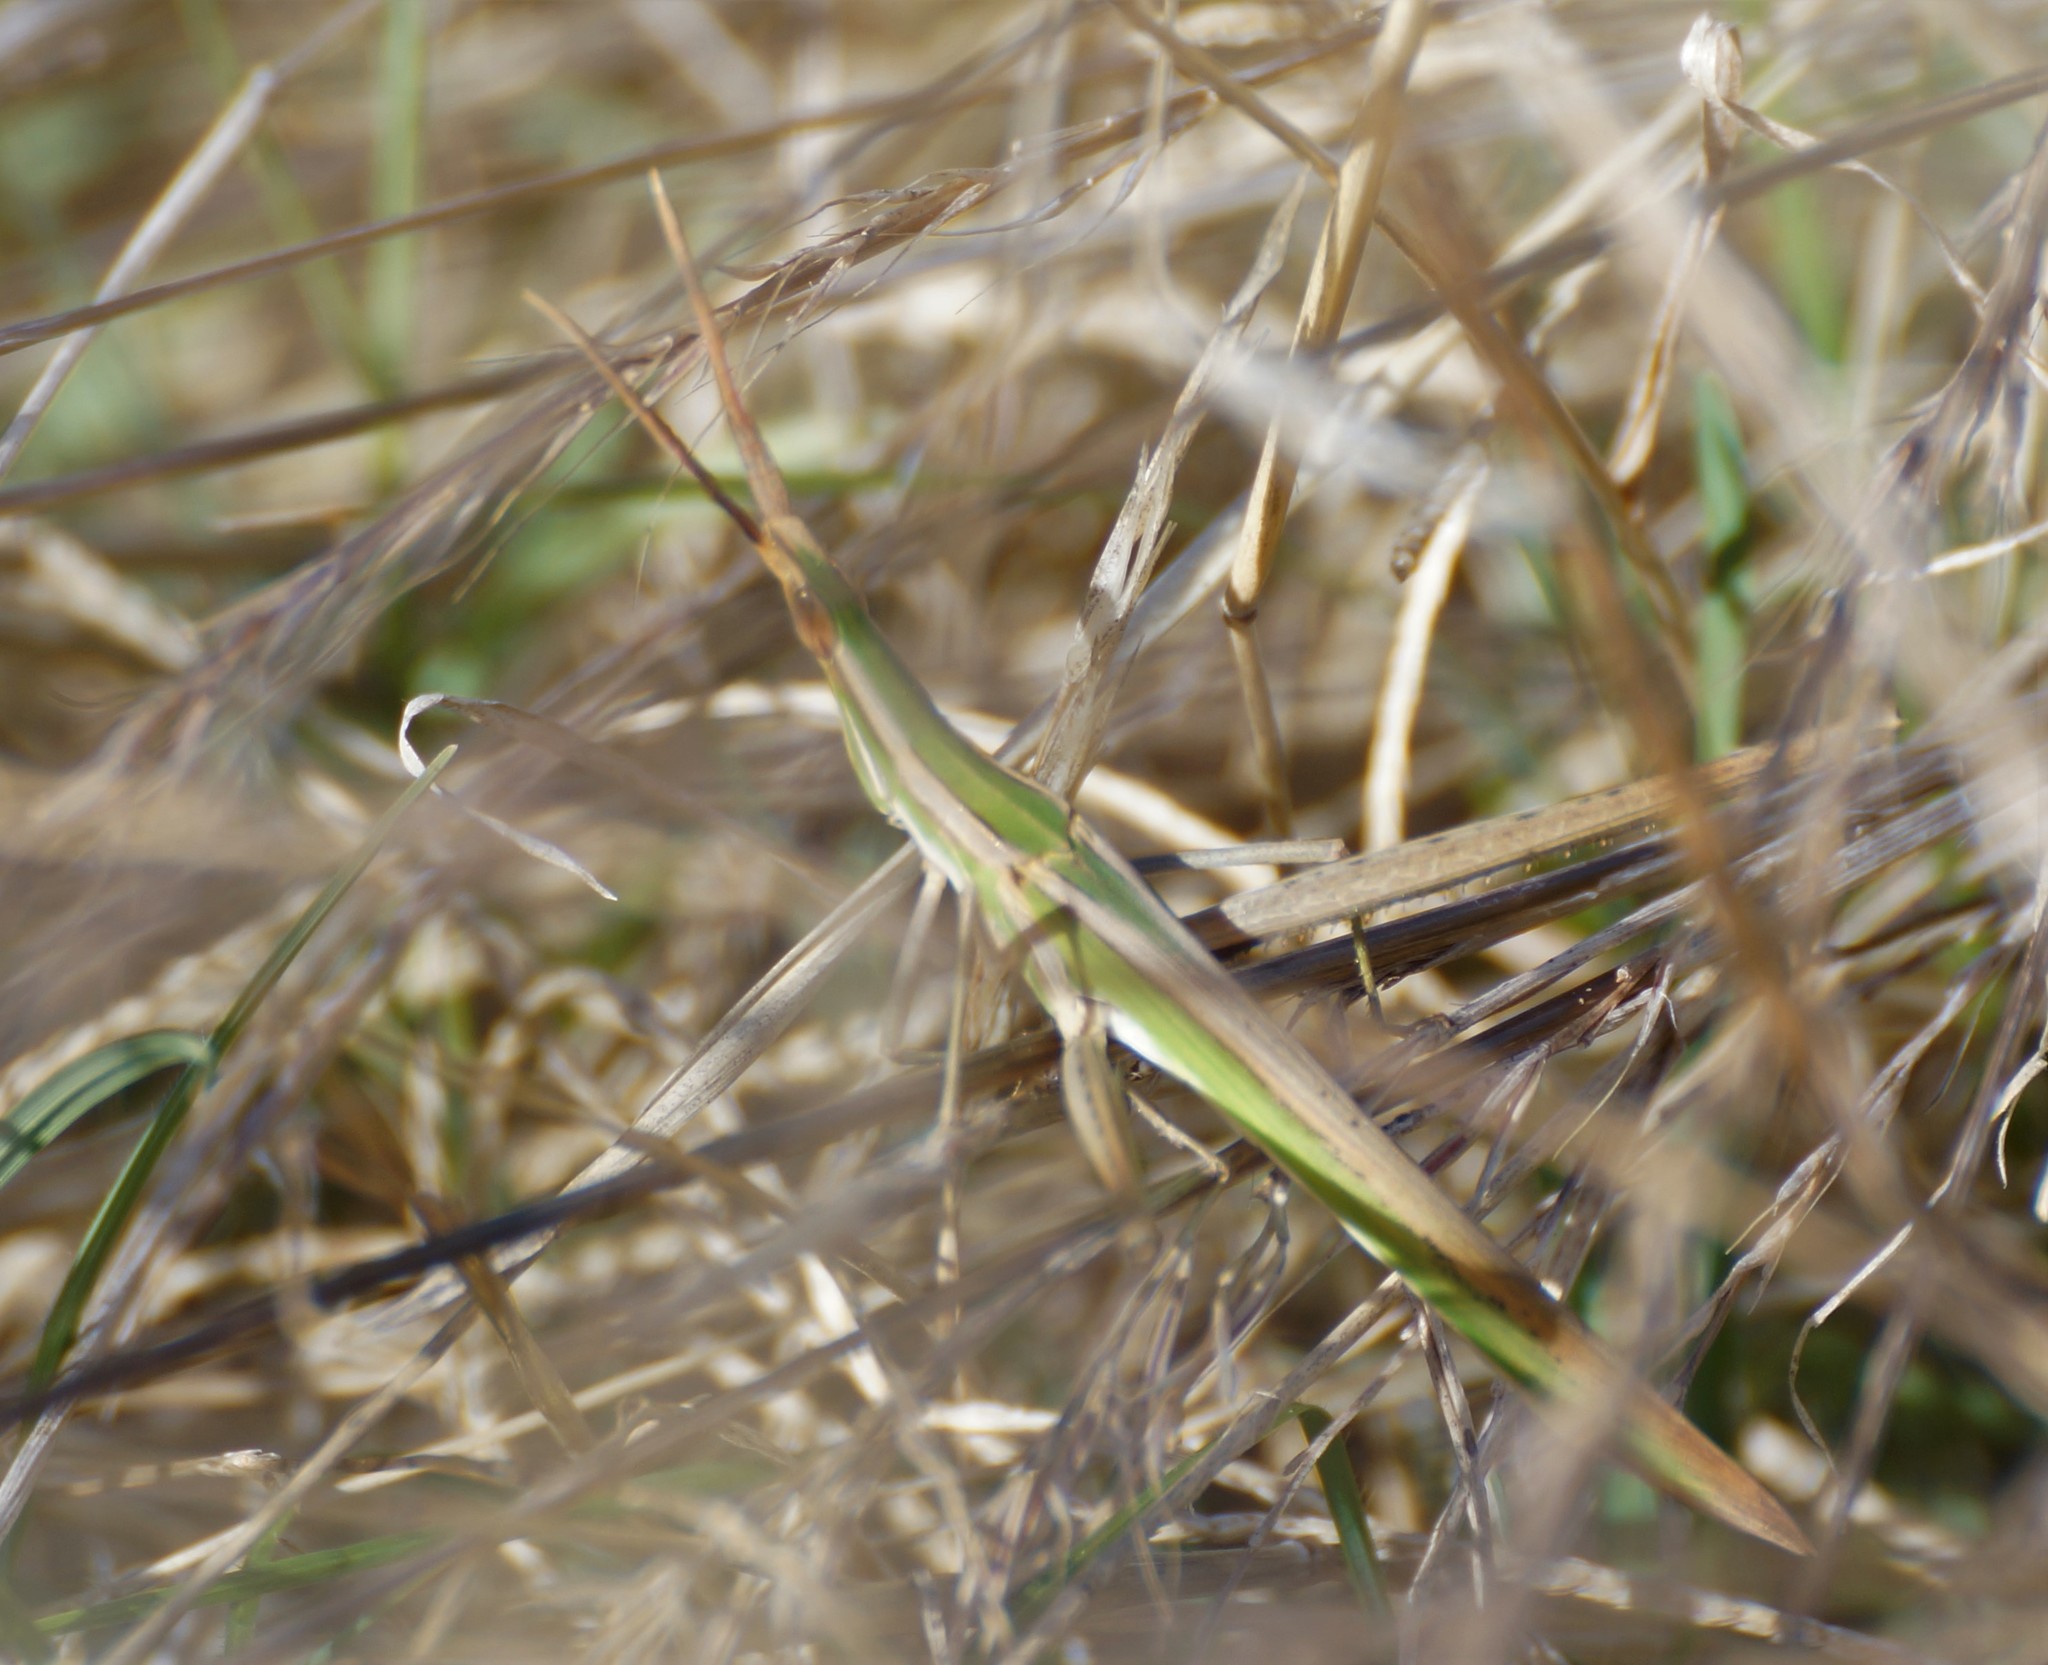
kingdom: Animalia
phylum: Arthropoda
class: Insecta
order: Orthoptera
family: Acrididae
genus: Acrida
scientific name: Acrida conica
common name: Giant green slantface
